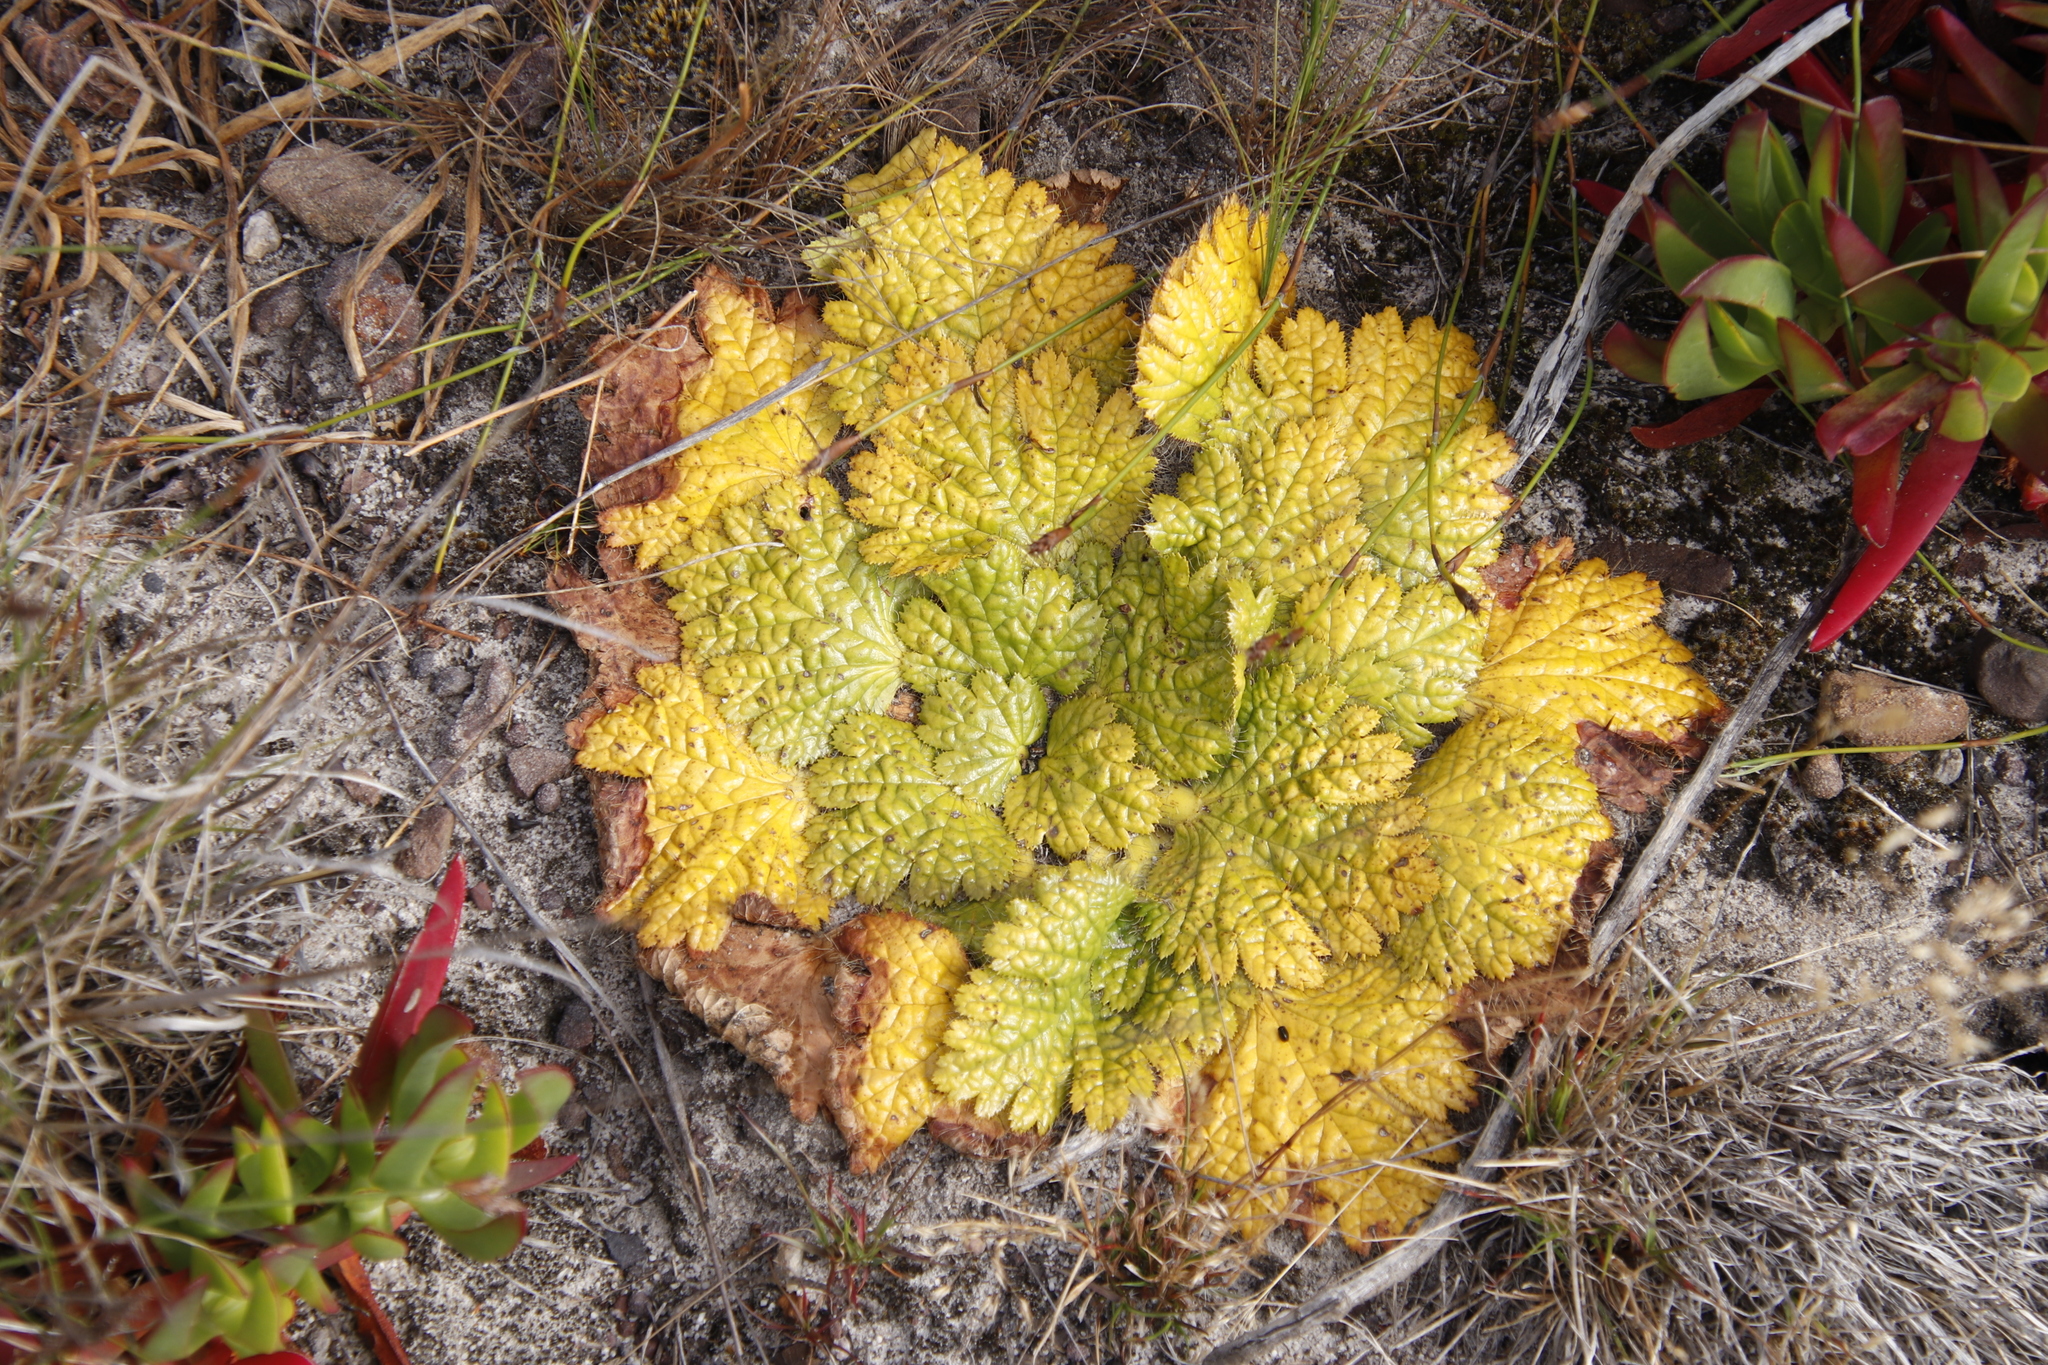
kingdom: Plantae
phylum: Tracheophyta
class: Magnoliopsida
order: Apiales
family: Apiaceae
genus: Arctopus
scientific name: Arctopus echinatus
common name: Platdoring
